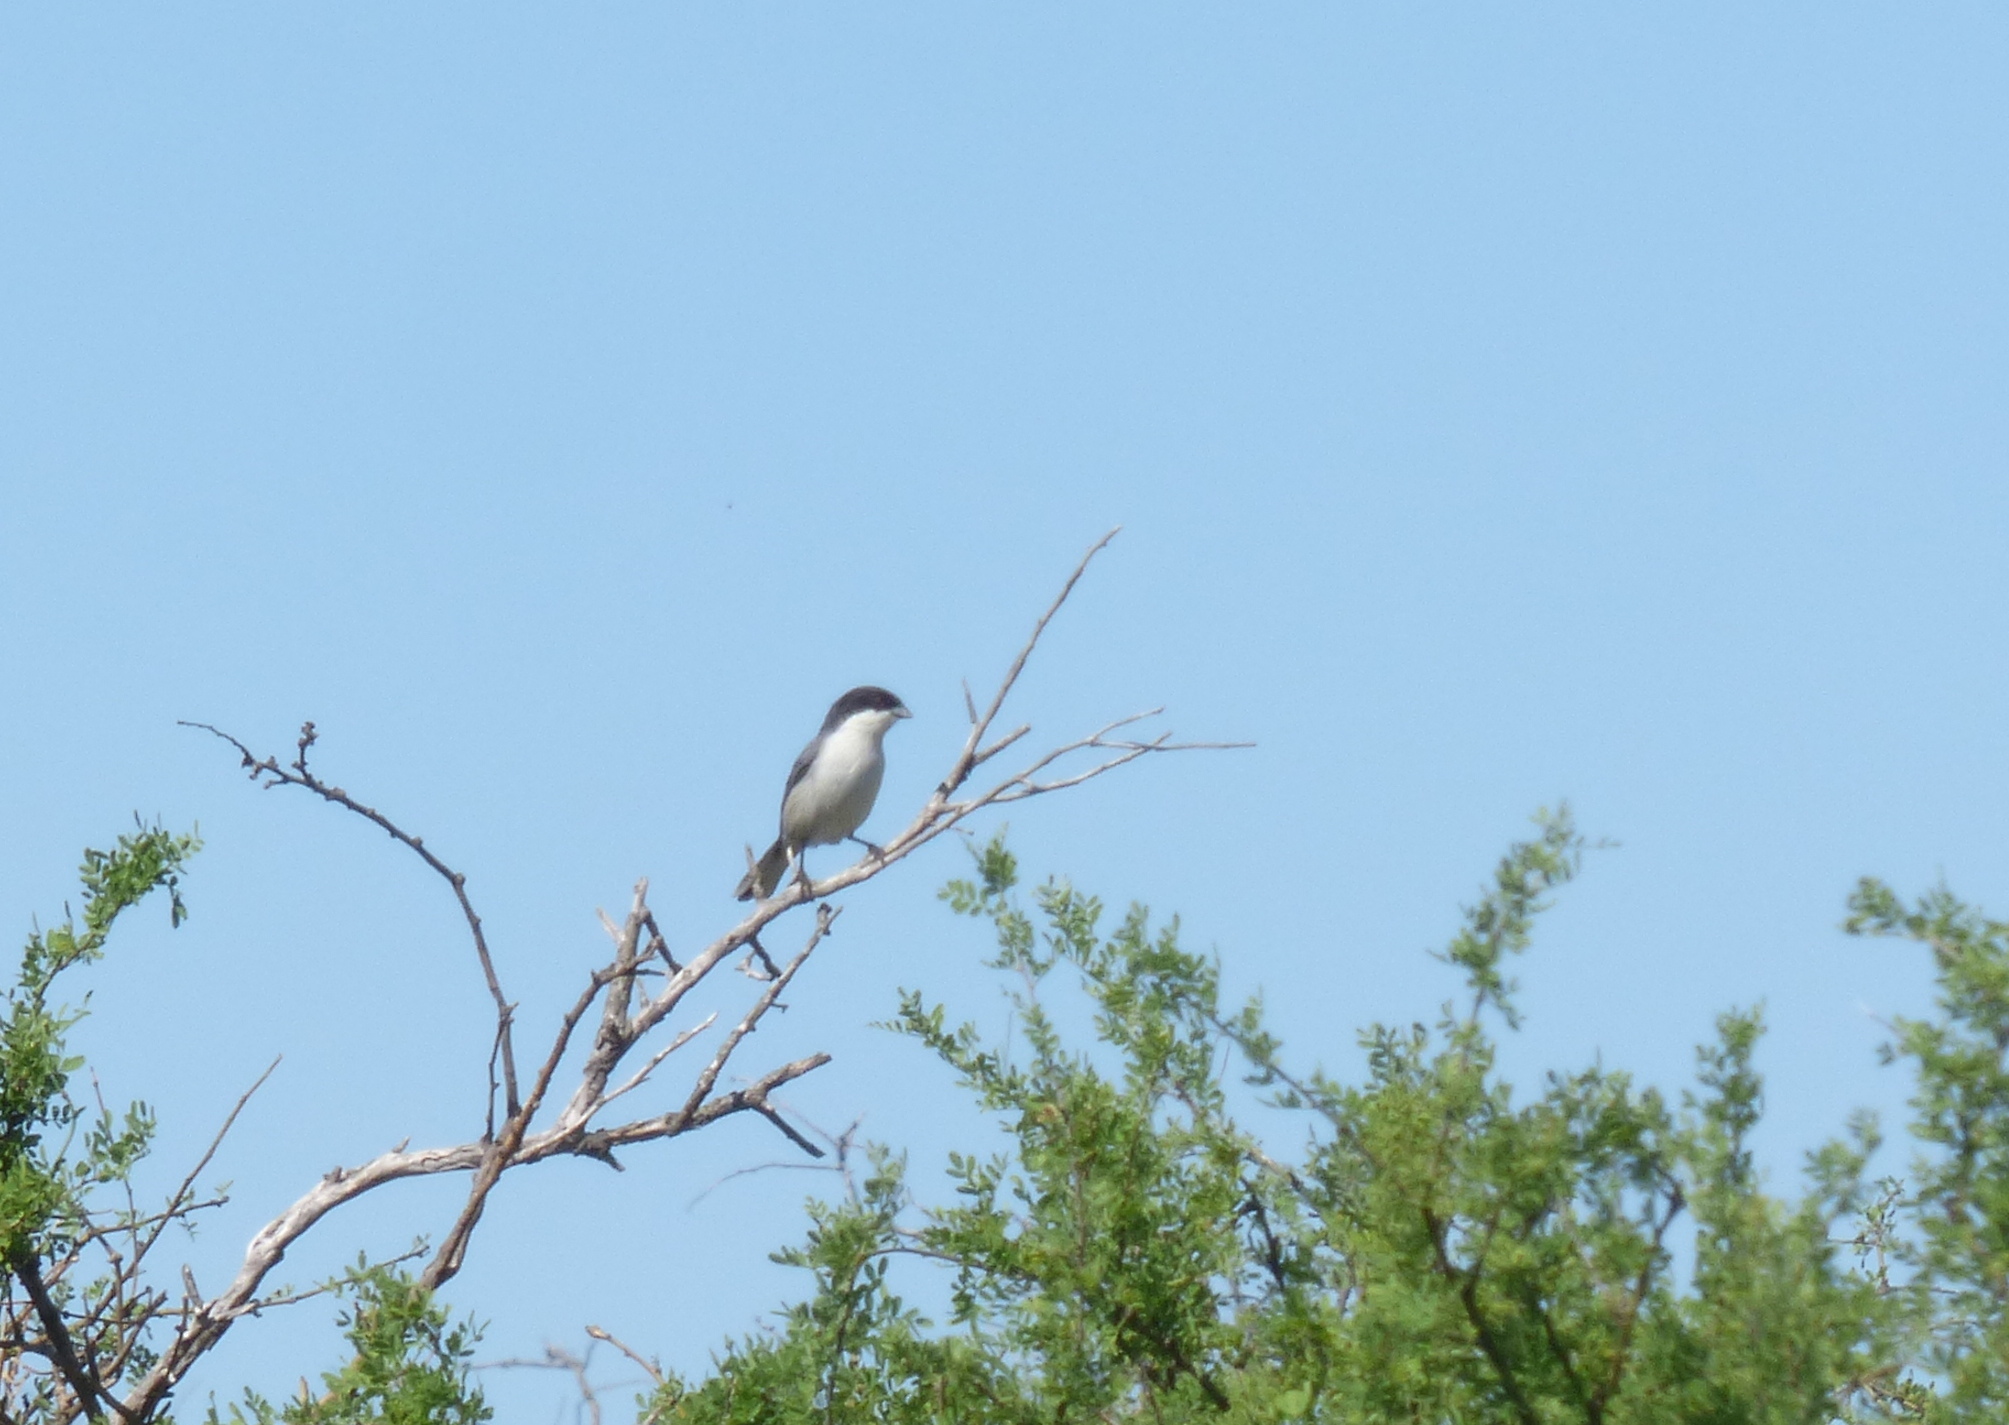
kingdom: Animalia
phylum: Chordata
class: Aves
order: Passeriformes
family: Thraupidae
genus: Microspingus
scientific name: Microspingus melanoleucus
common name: Black-capped warbling-finch
